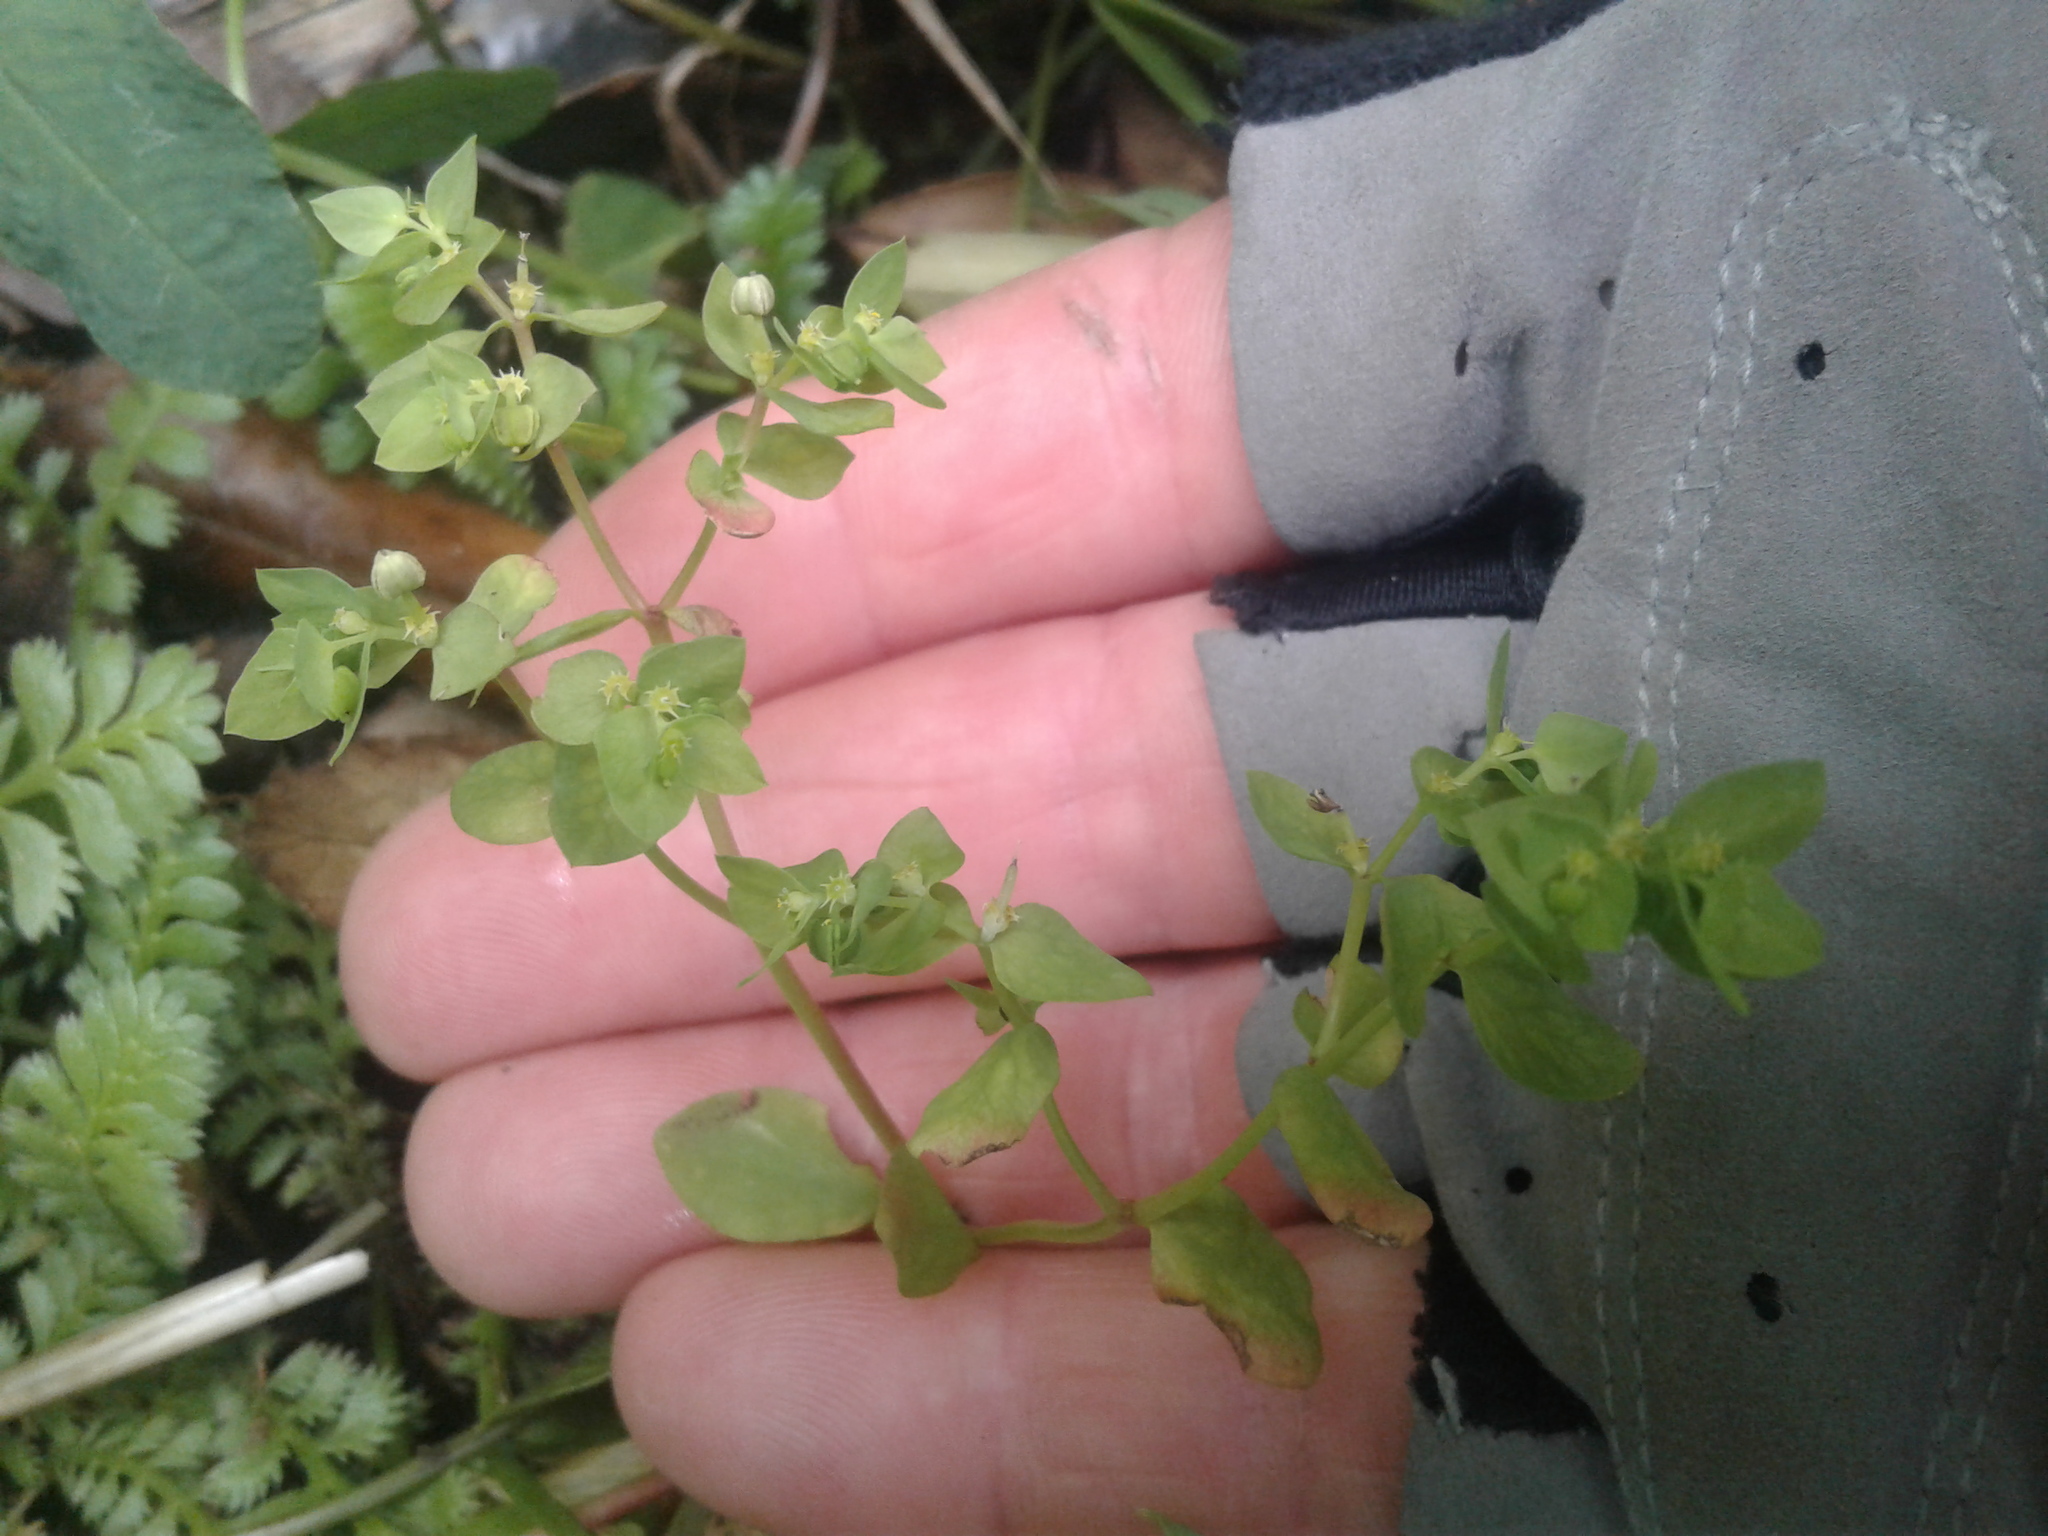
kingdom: Plantae
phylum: Tracheophyta
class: Magnoliopsida
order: Malpighiales
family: Euphorbiaceae
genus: Euphorbia
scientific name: Euphorbia peplus
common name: Petty spurge
